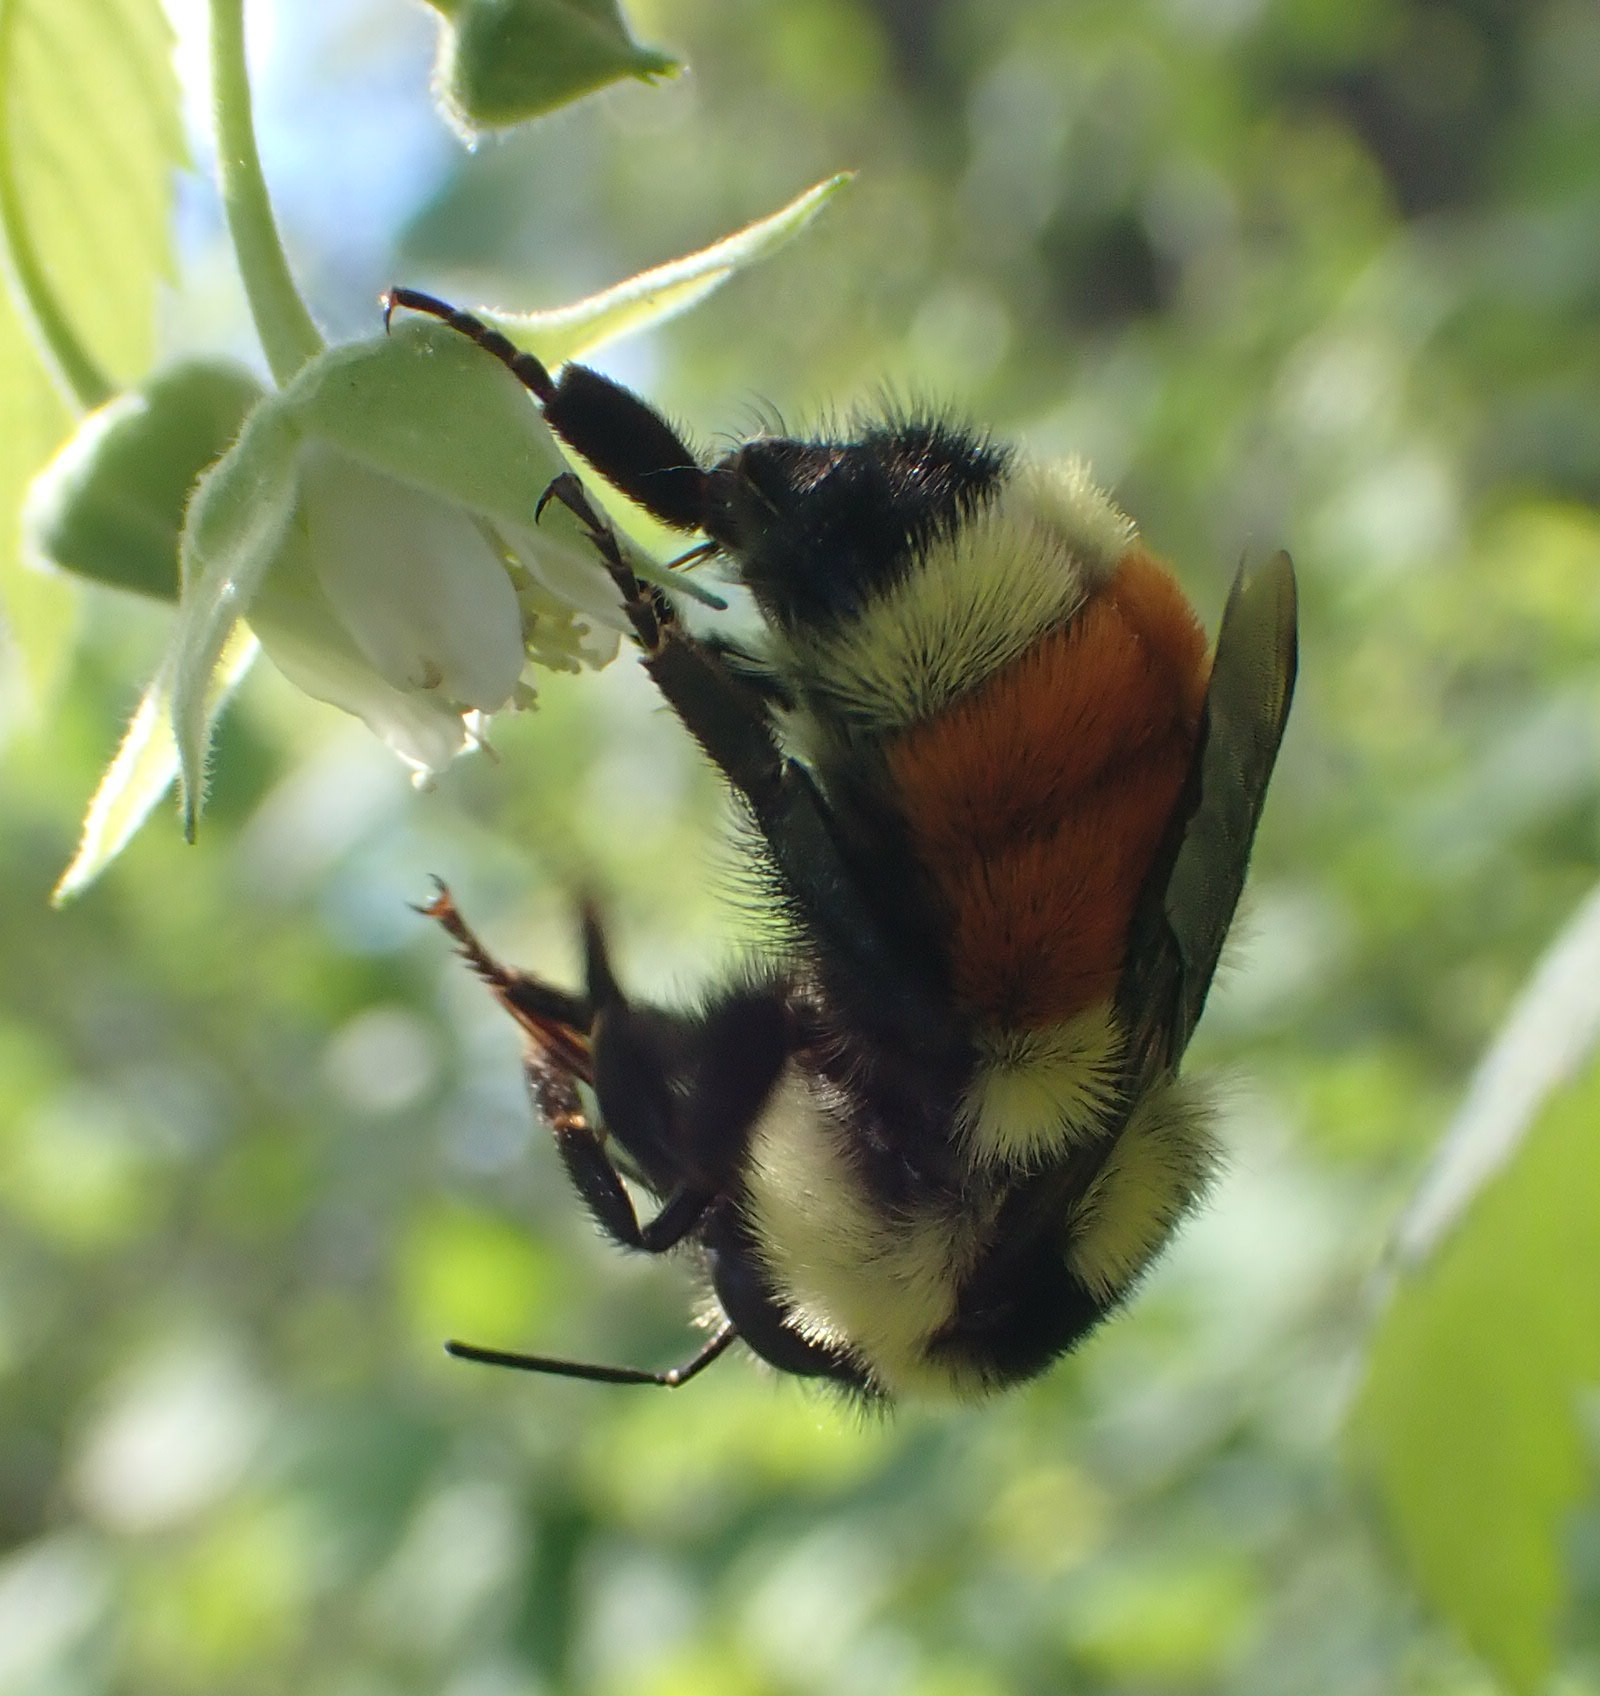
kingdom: Animalia
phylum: Arthropoda
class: Insecta
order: Hymenoptera
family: Apidae
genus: Bombus
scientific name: Bombus ternarius
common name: Tri-colored bumble bee
